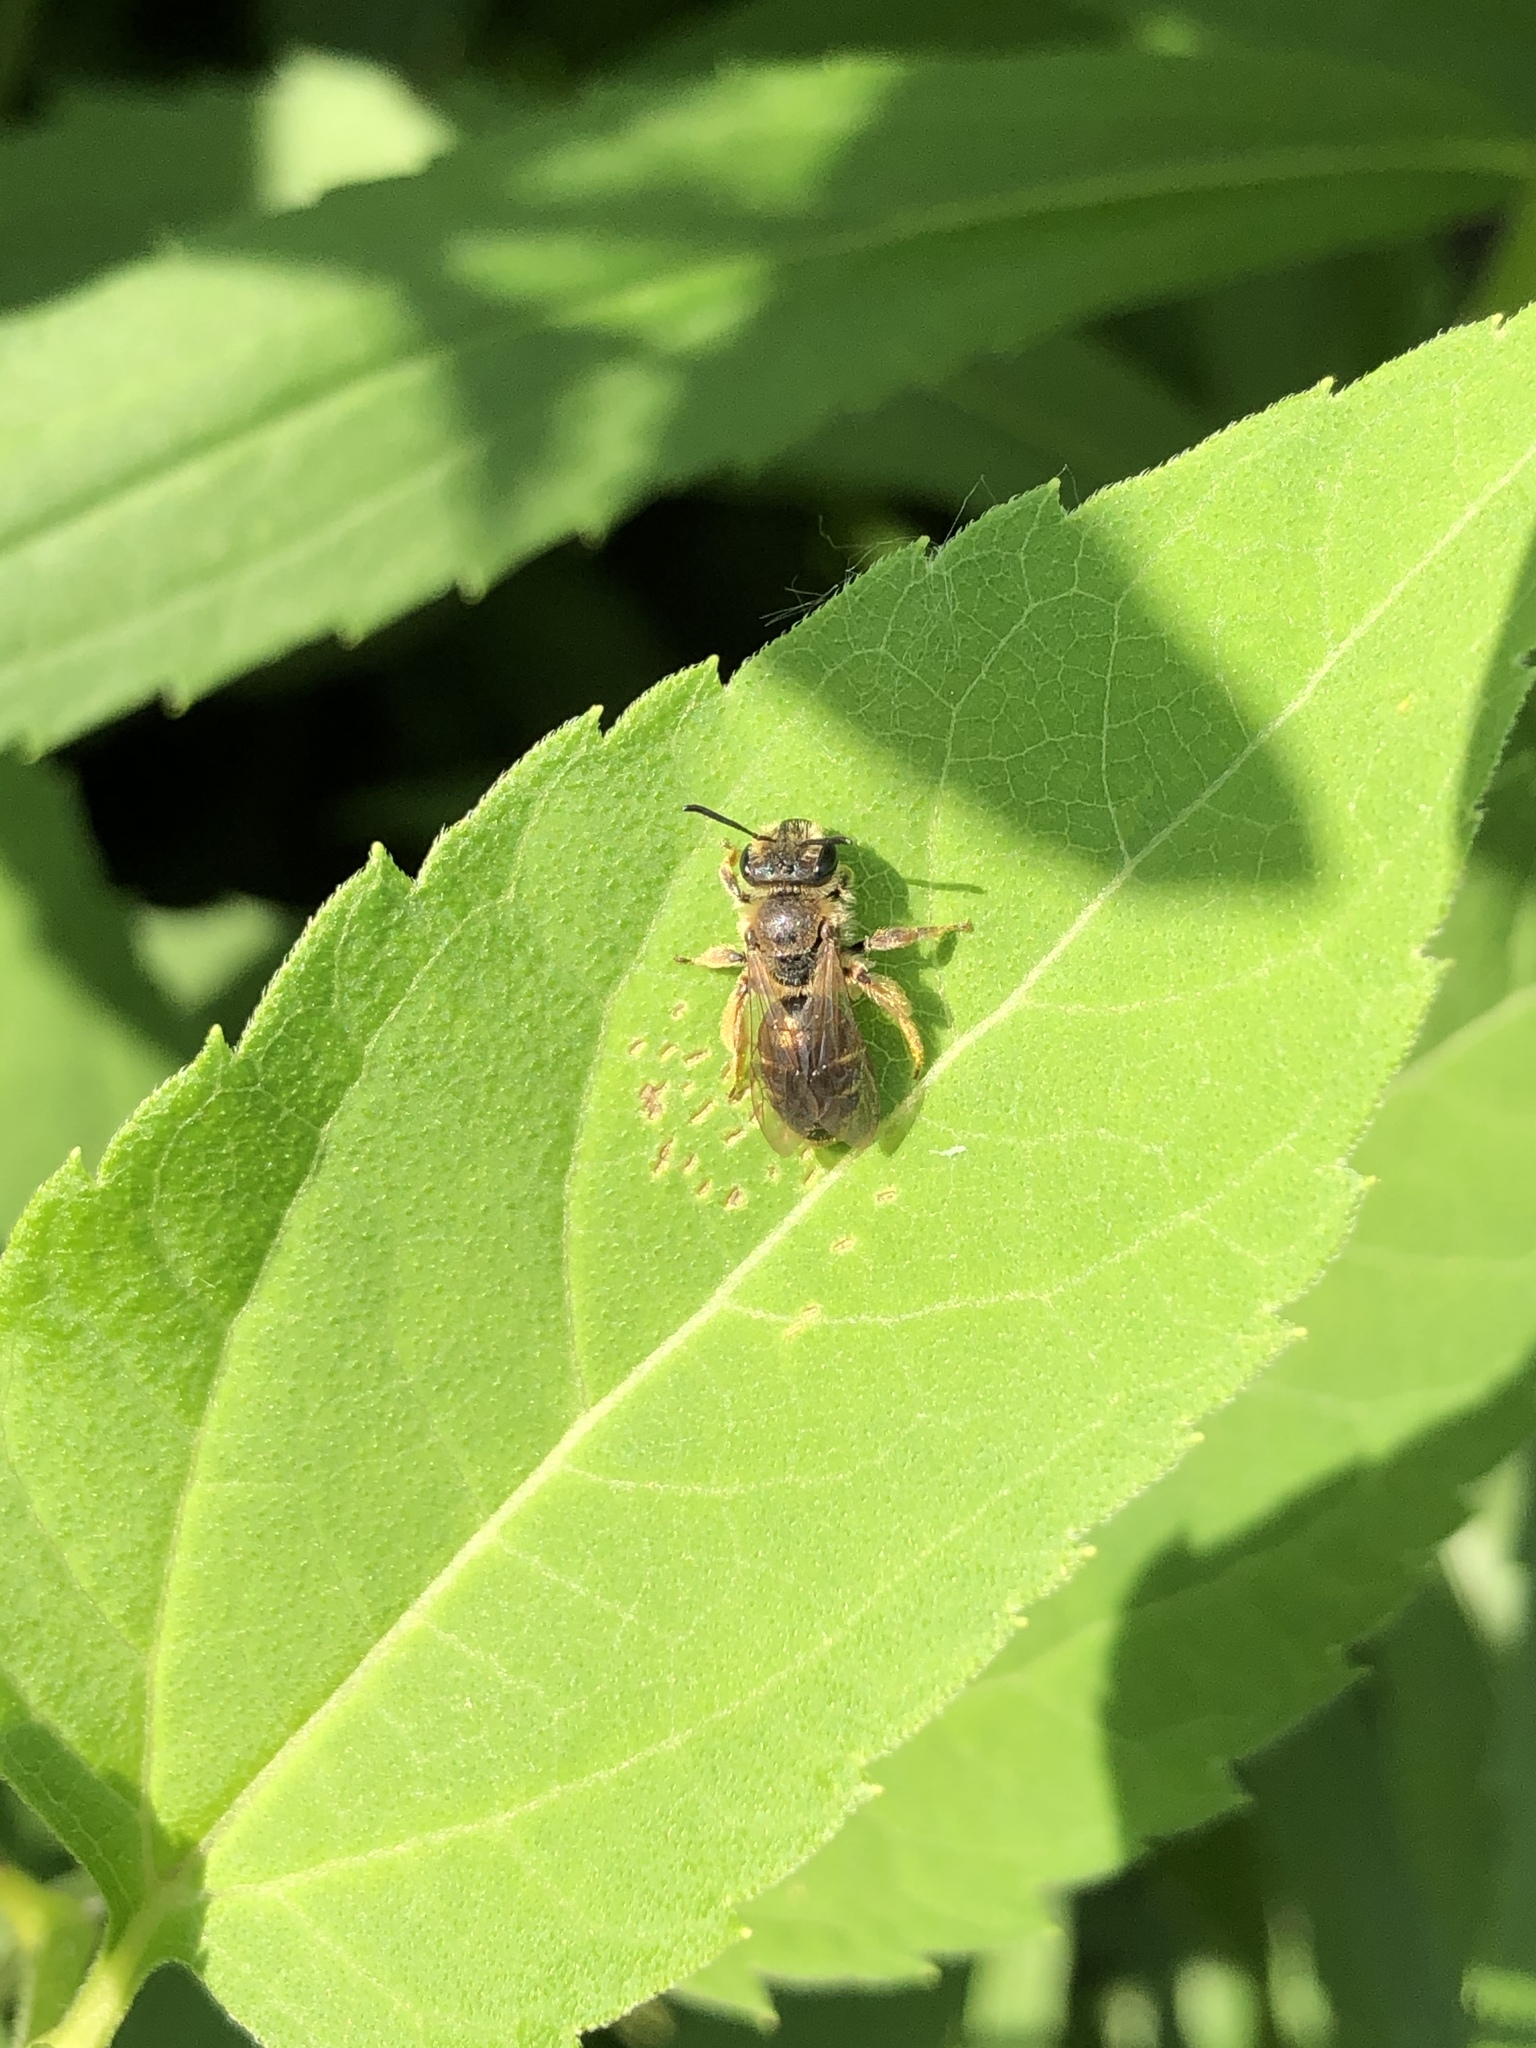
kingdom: Animalia
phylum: Arthropoda
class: Insecta
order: Hymenoptera
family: Andrenidae
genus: Andrena
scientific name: Andrena wilkella
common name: Wilke's mining bee
